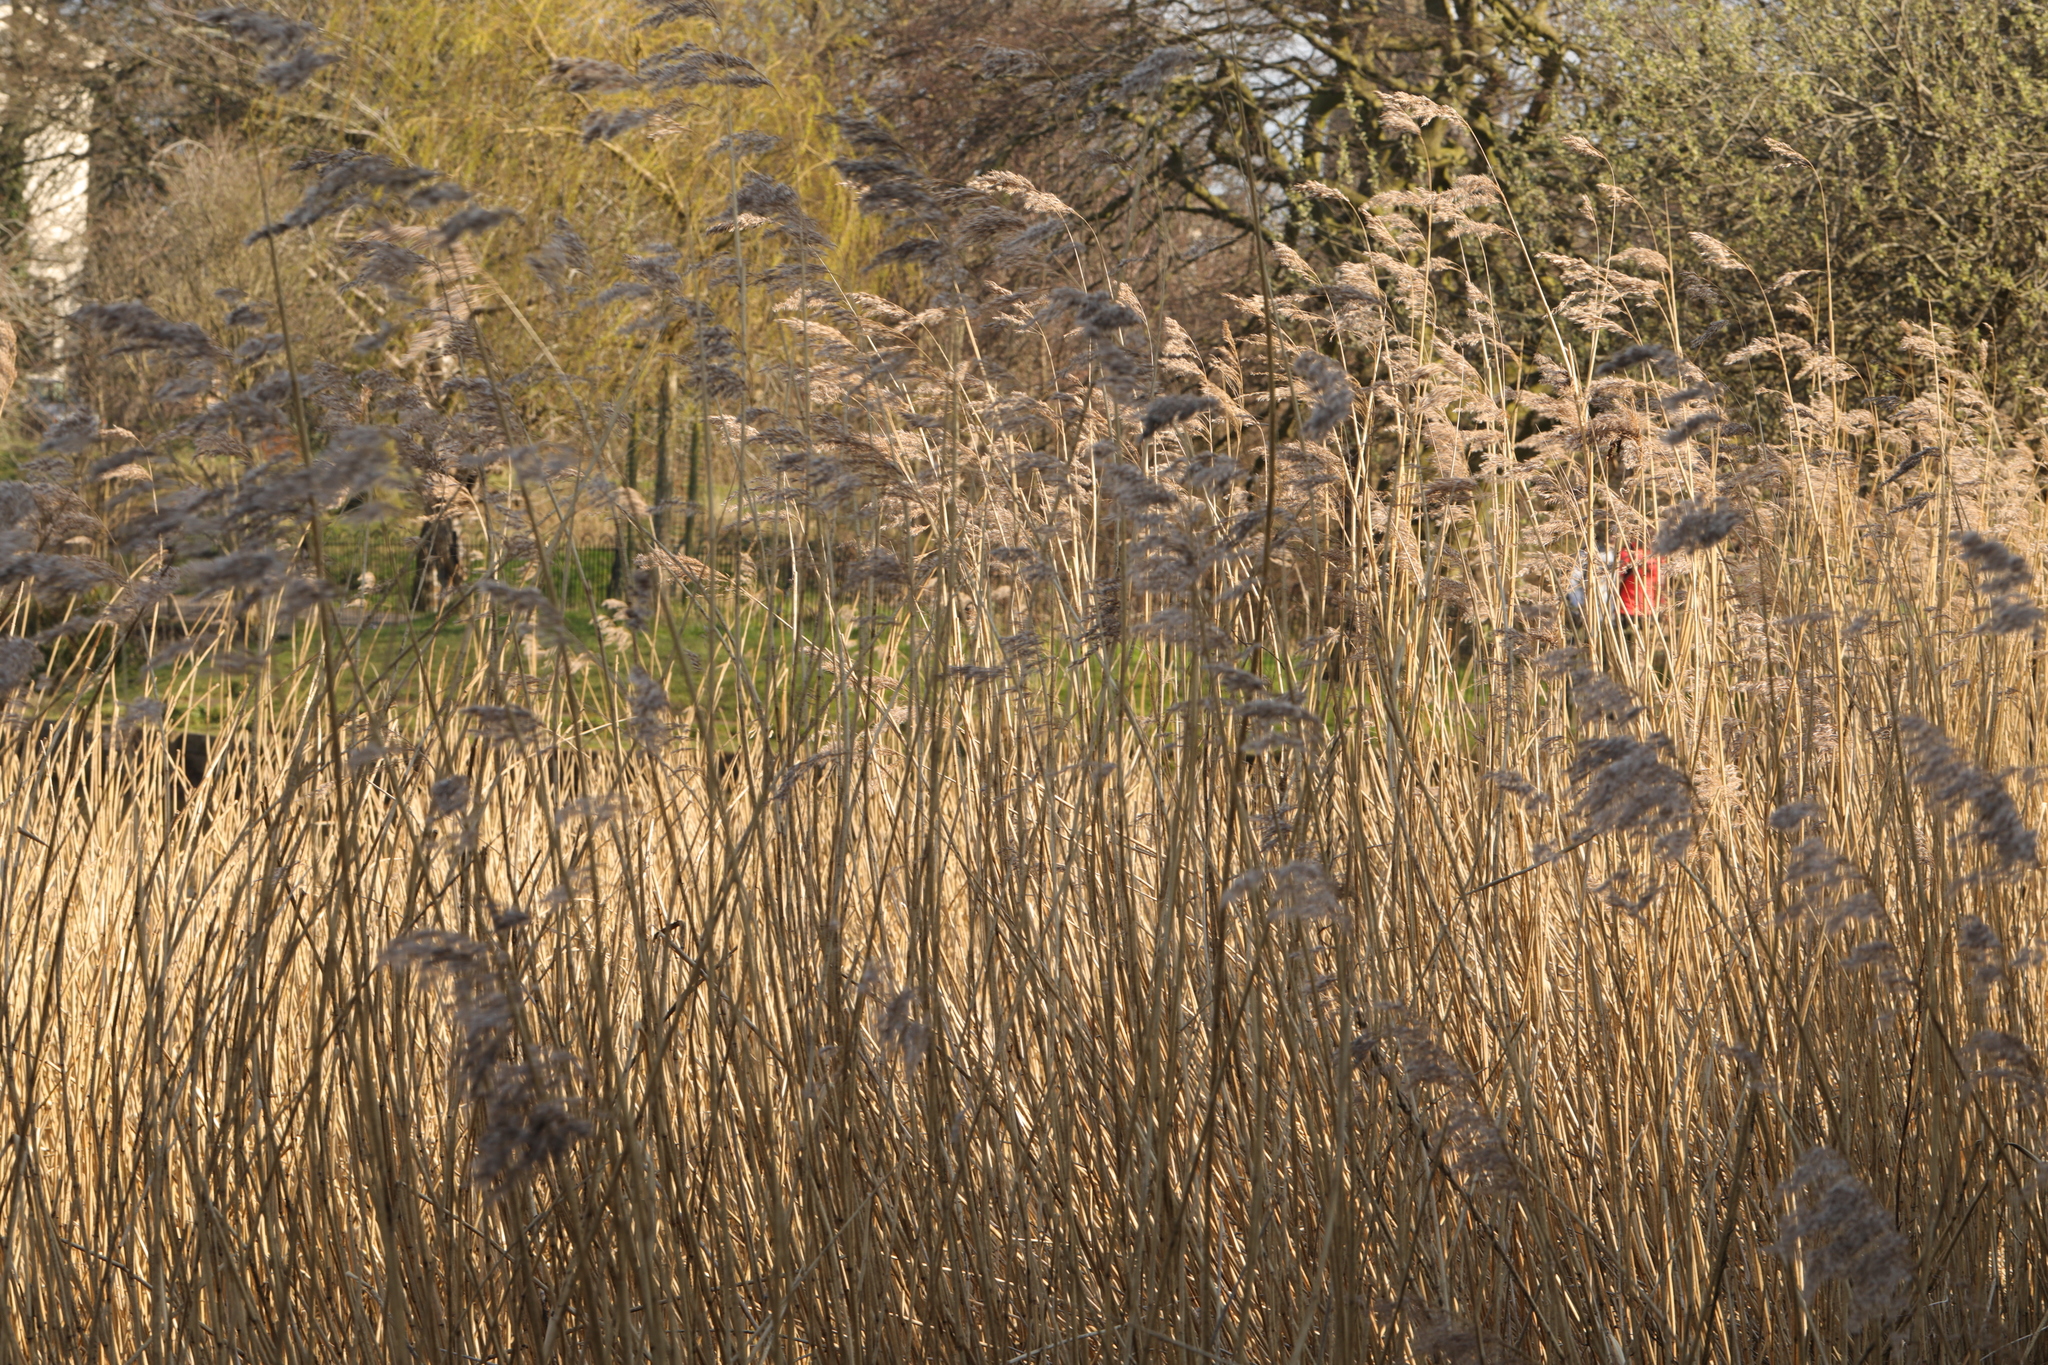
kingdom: Plantae
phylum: Tracheophyta
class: Liliopsida
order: Poales
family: Poaceae
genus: Phragmites
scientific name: Phragmites australis
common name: Common reed
